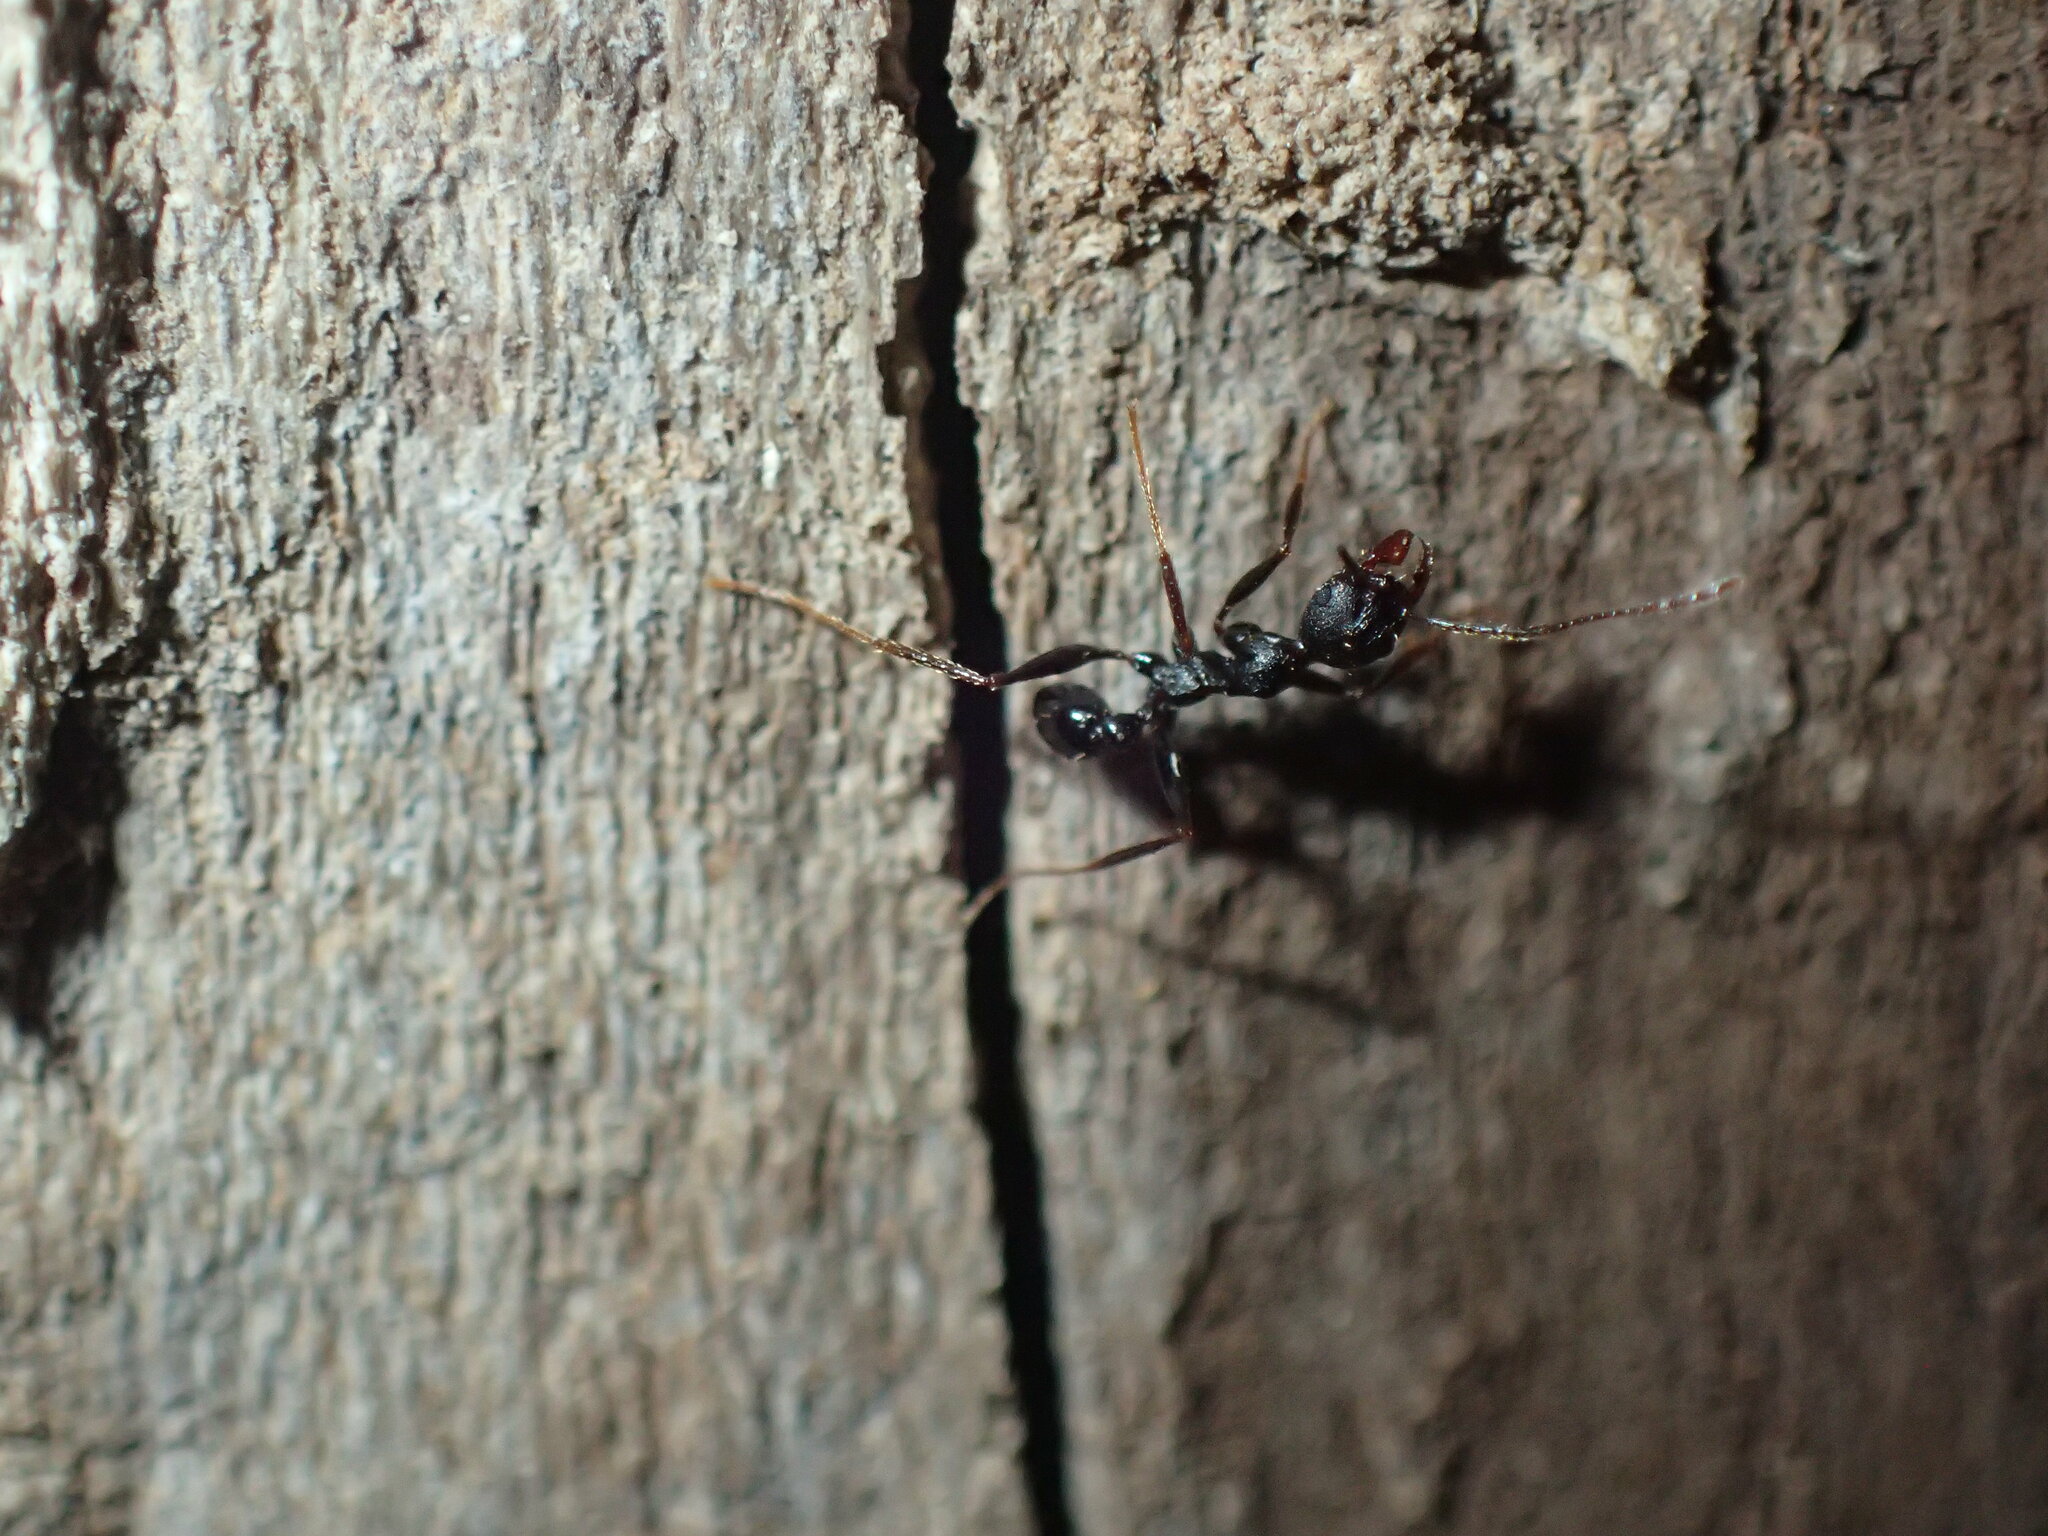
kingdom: Animalia
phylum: Arthropoda
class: Insecta
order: Hymenoptera
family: Formicidae
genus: Pheidole
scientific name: Pheidole akermani
